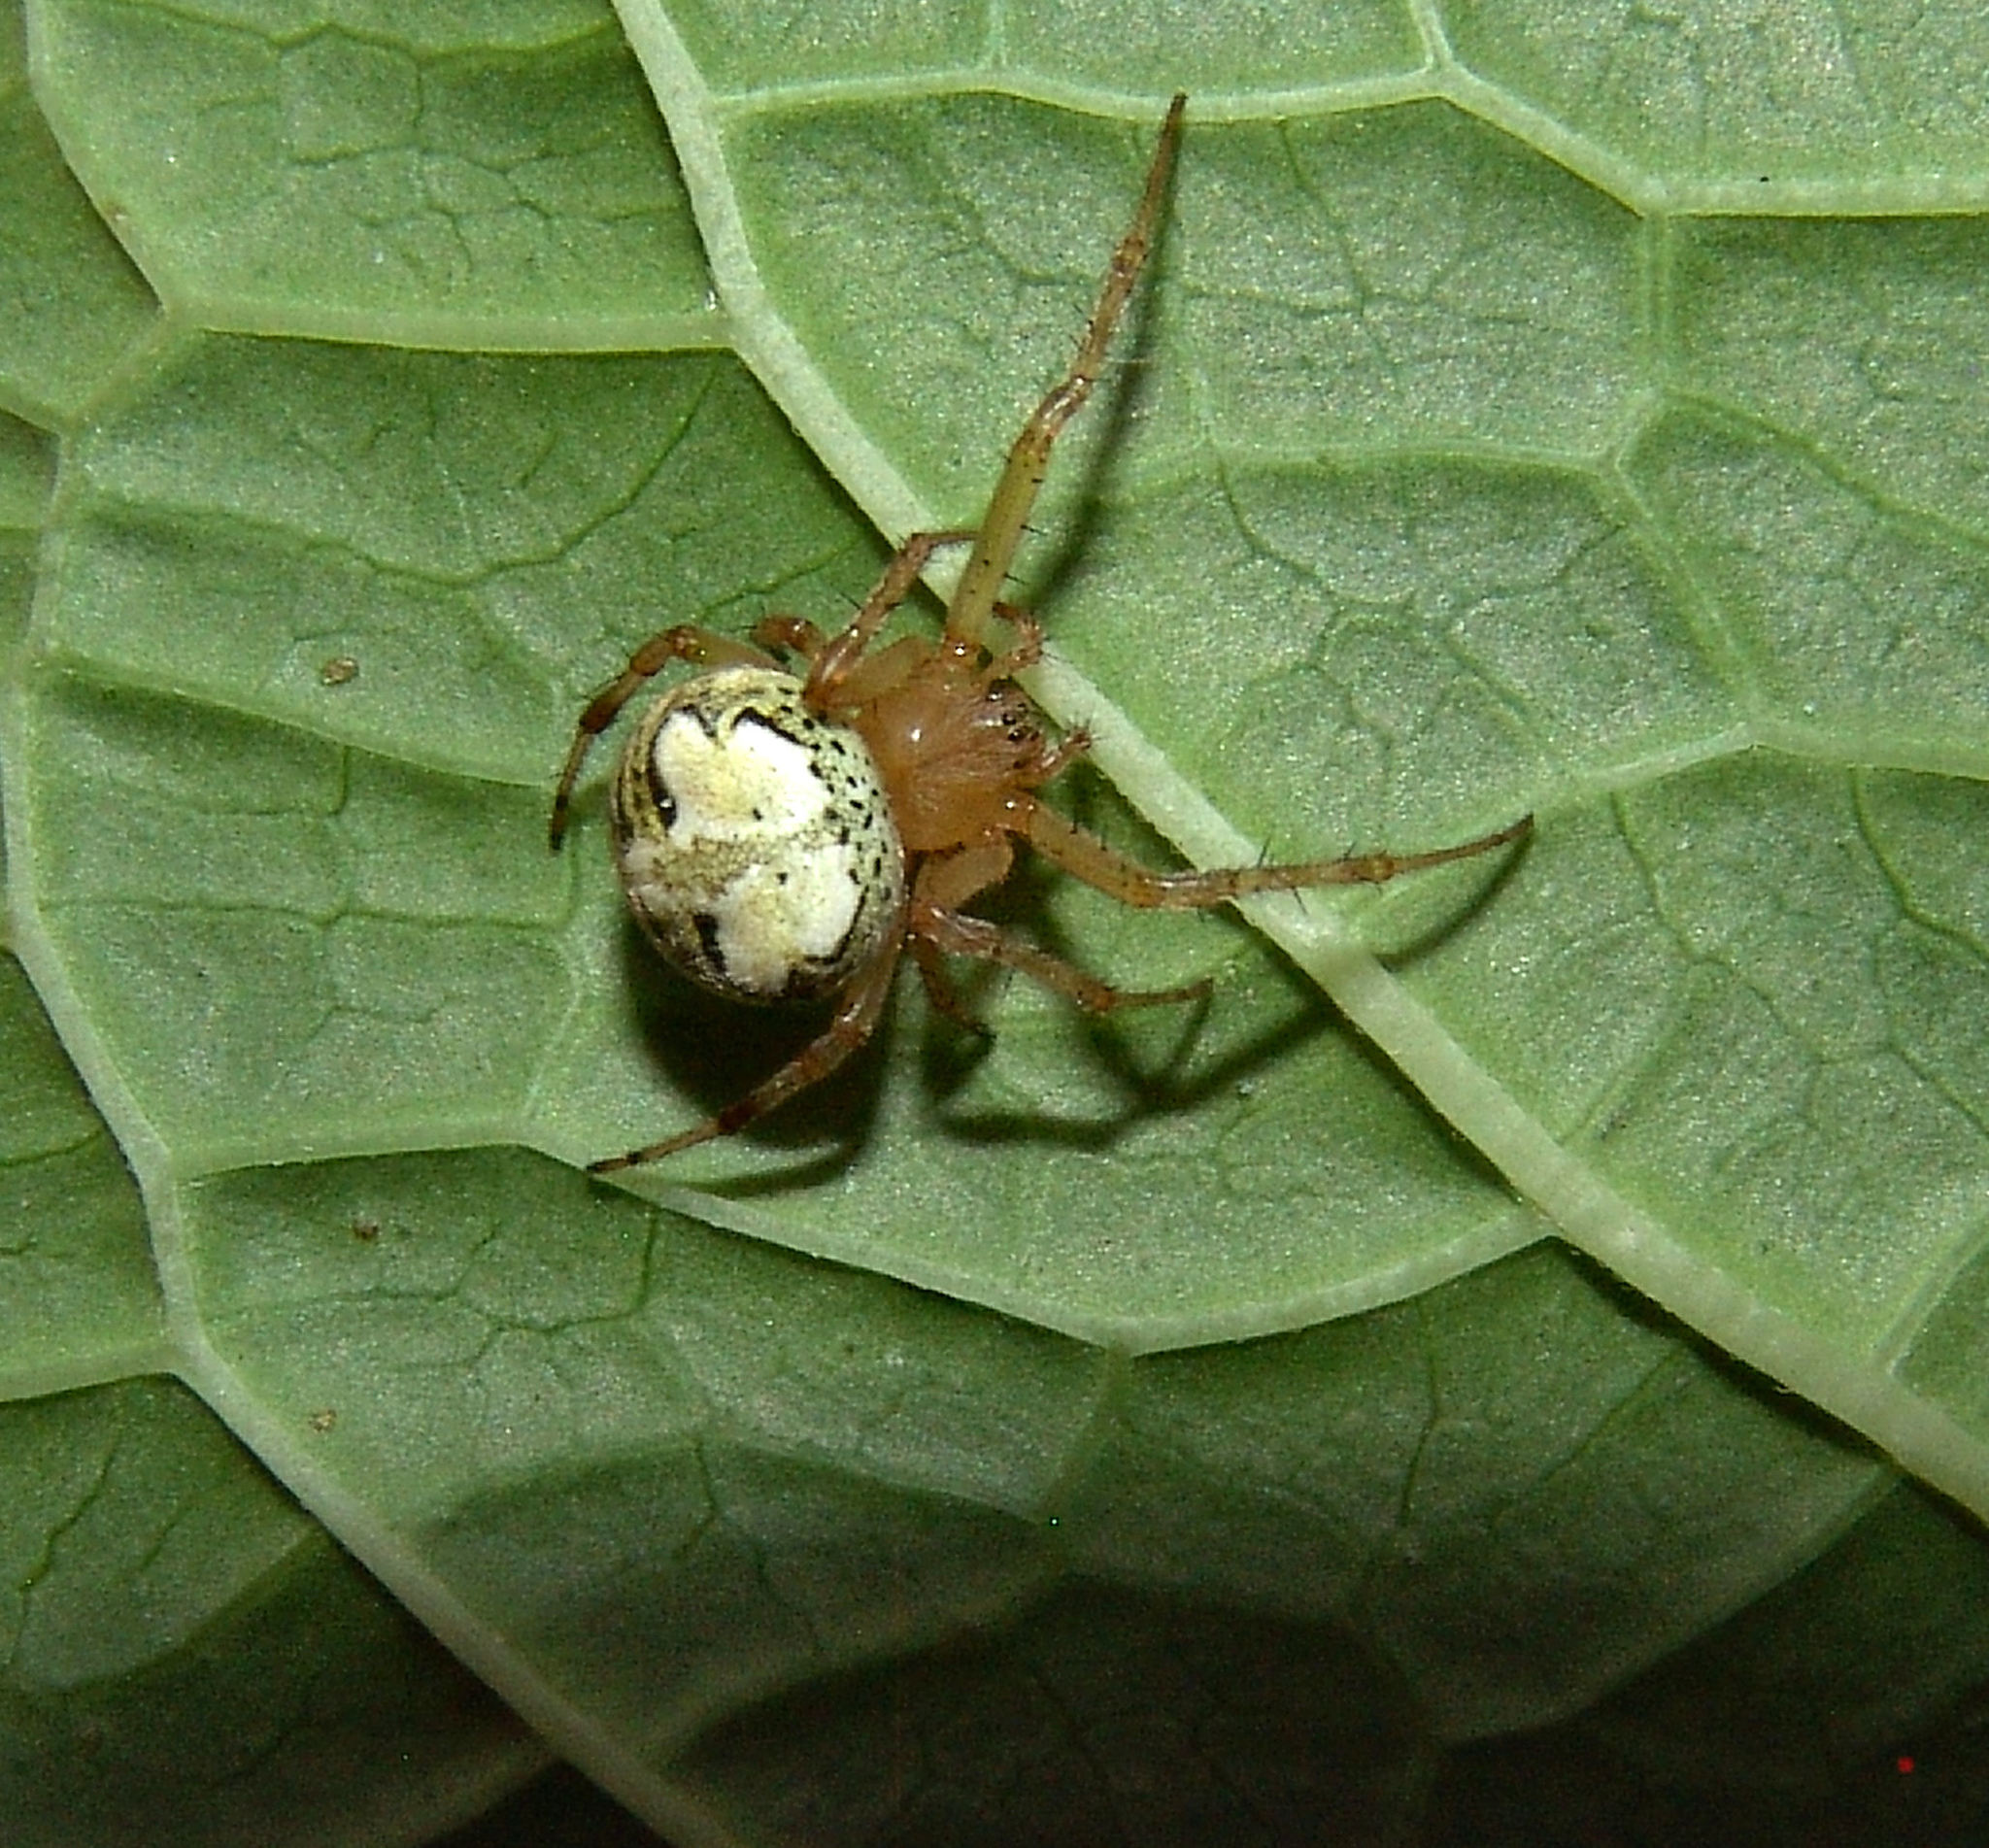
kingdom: Animalia
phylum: Arthropoda
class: Arachnida
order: Araneae
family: Araneidae
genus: Araneus
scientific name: Araneus pegnia
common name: Orb weavers
